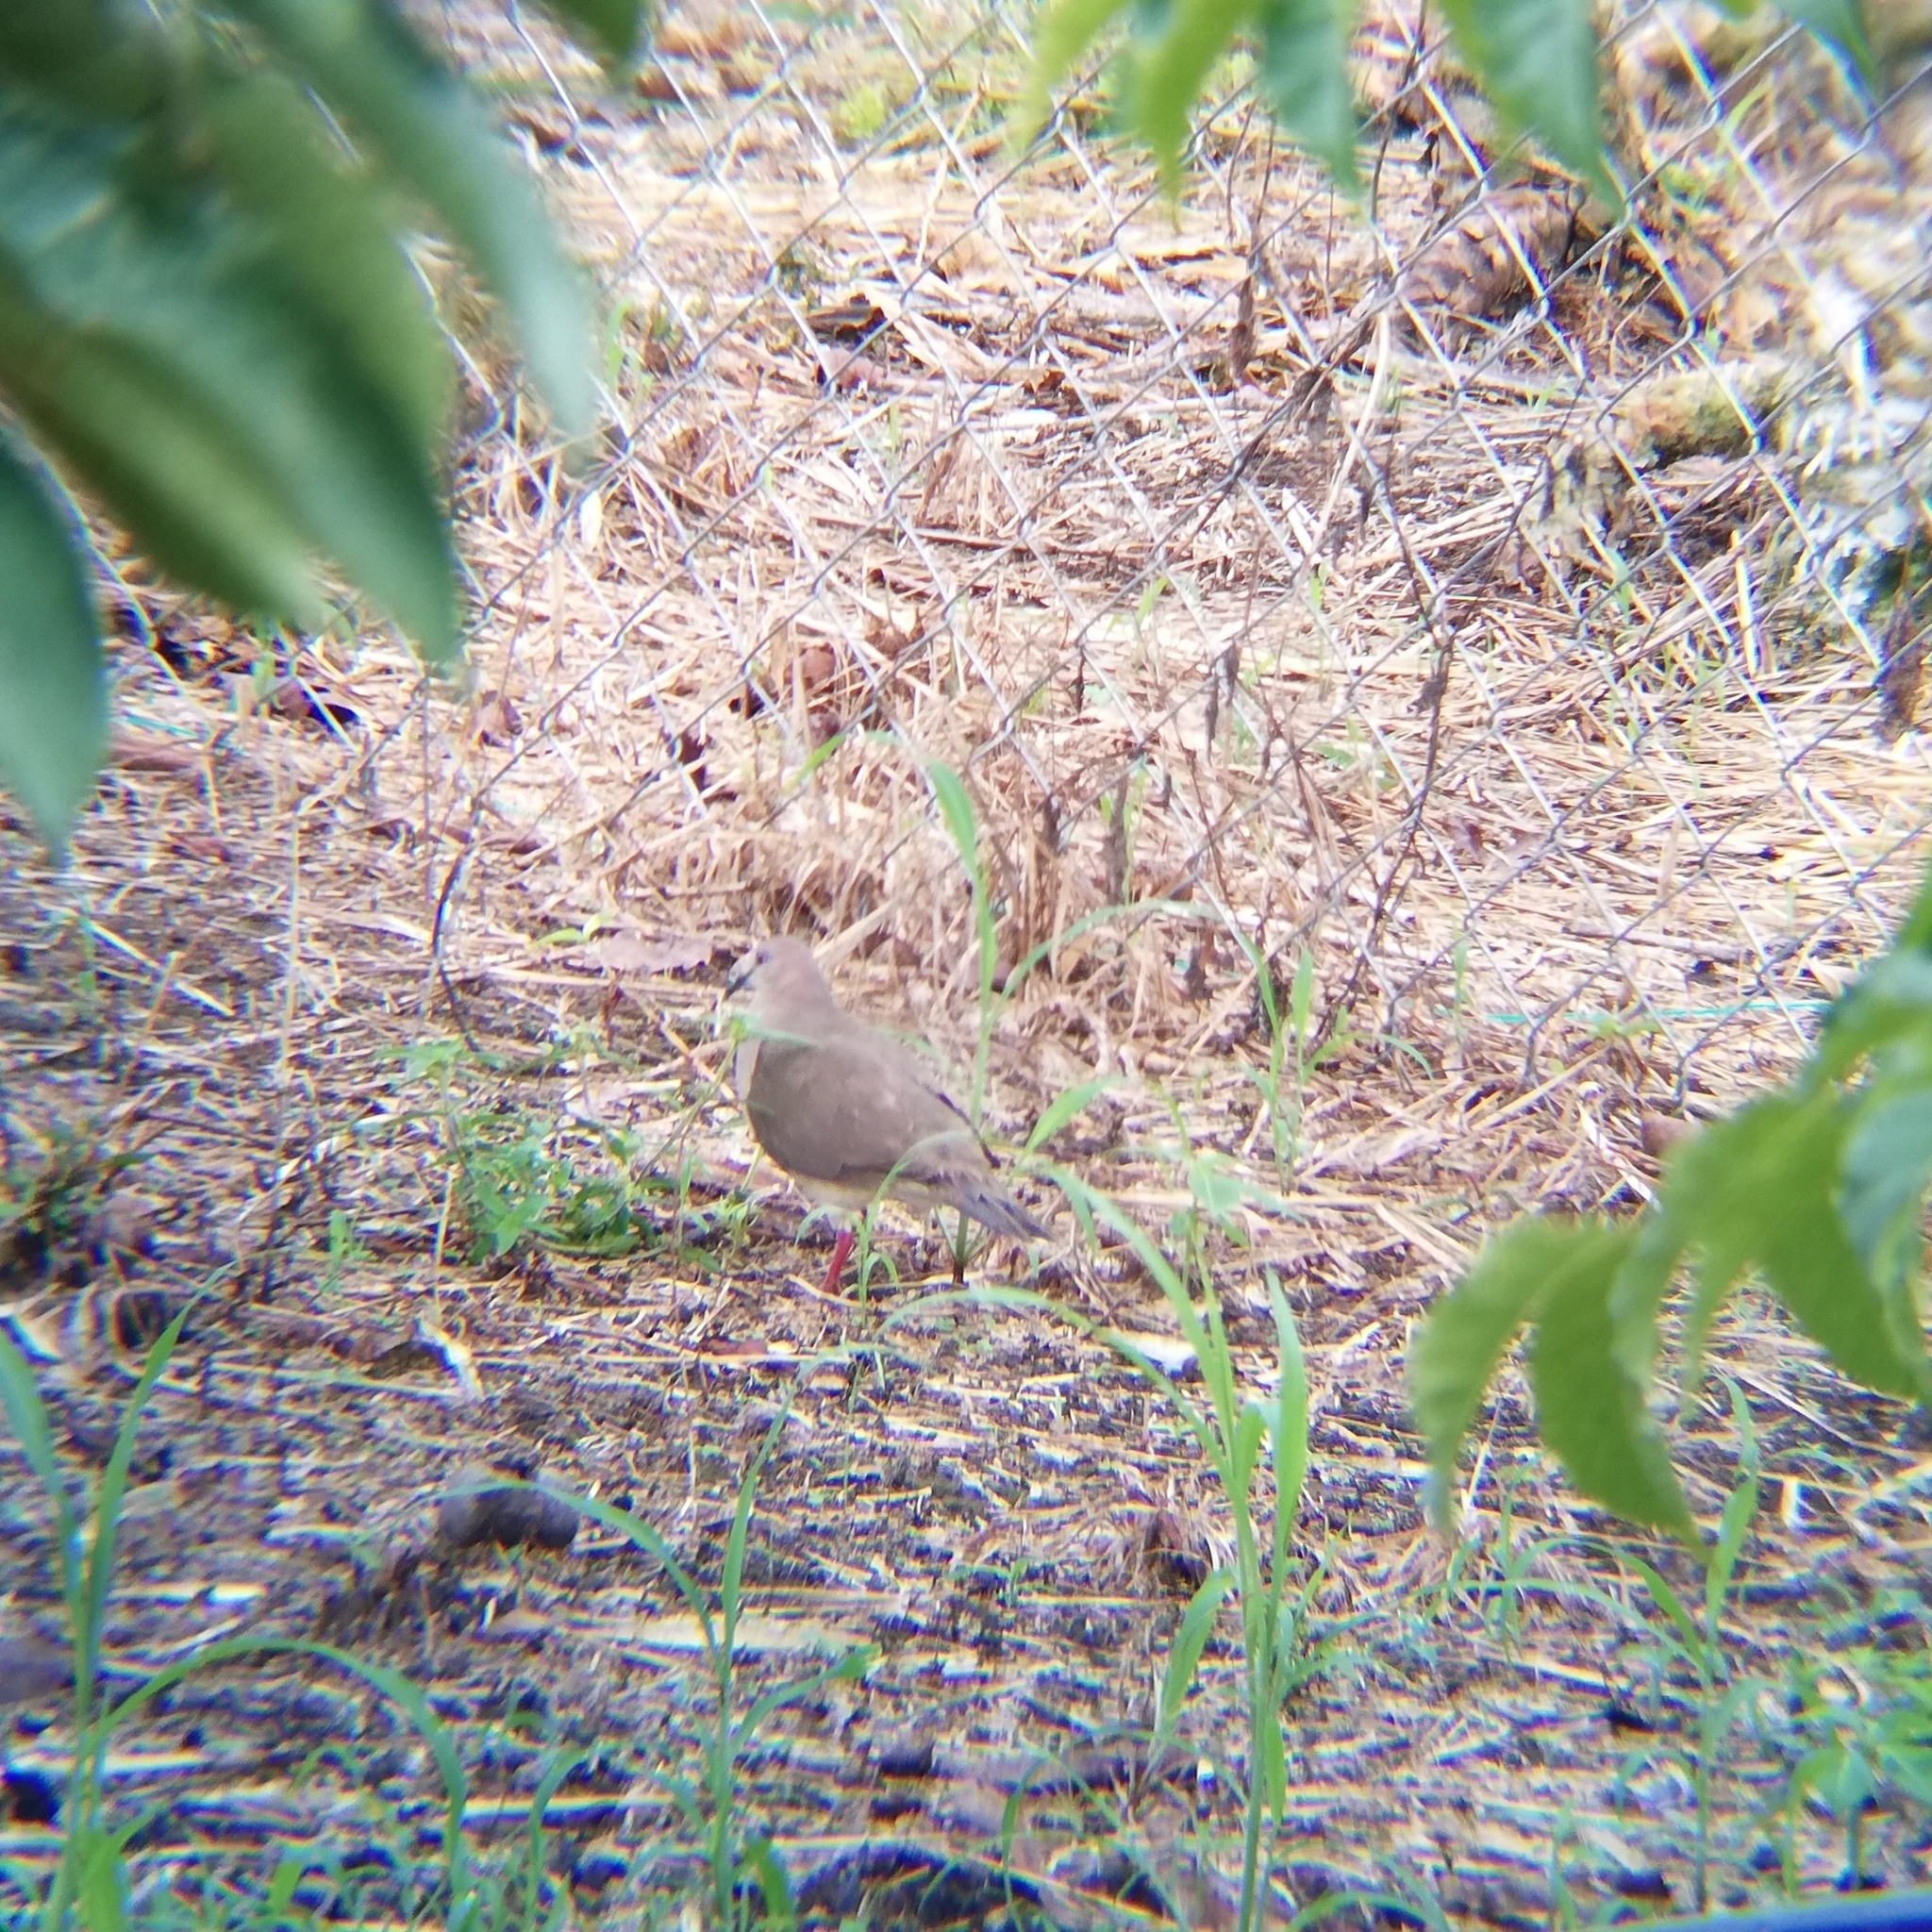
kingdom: Animalia
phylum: Chordata
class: Aves
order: Columbiformes
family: Columbidae
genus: Leptotila
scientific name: Leptotila verreauxi
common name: White-tipped dove
